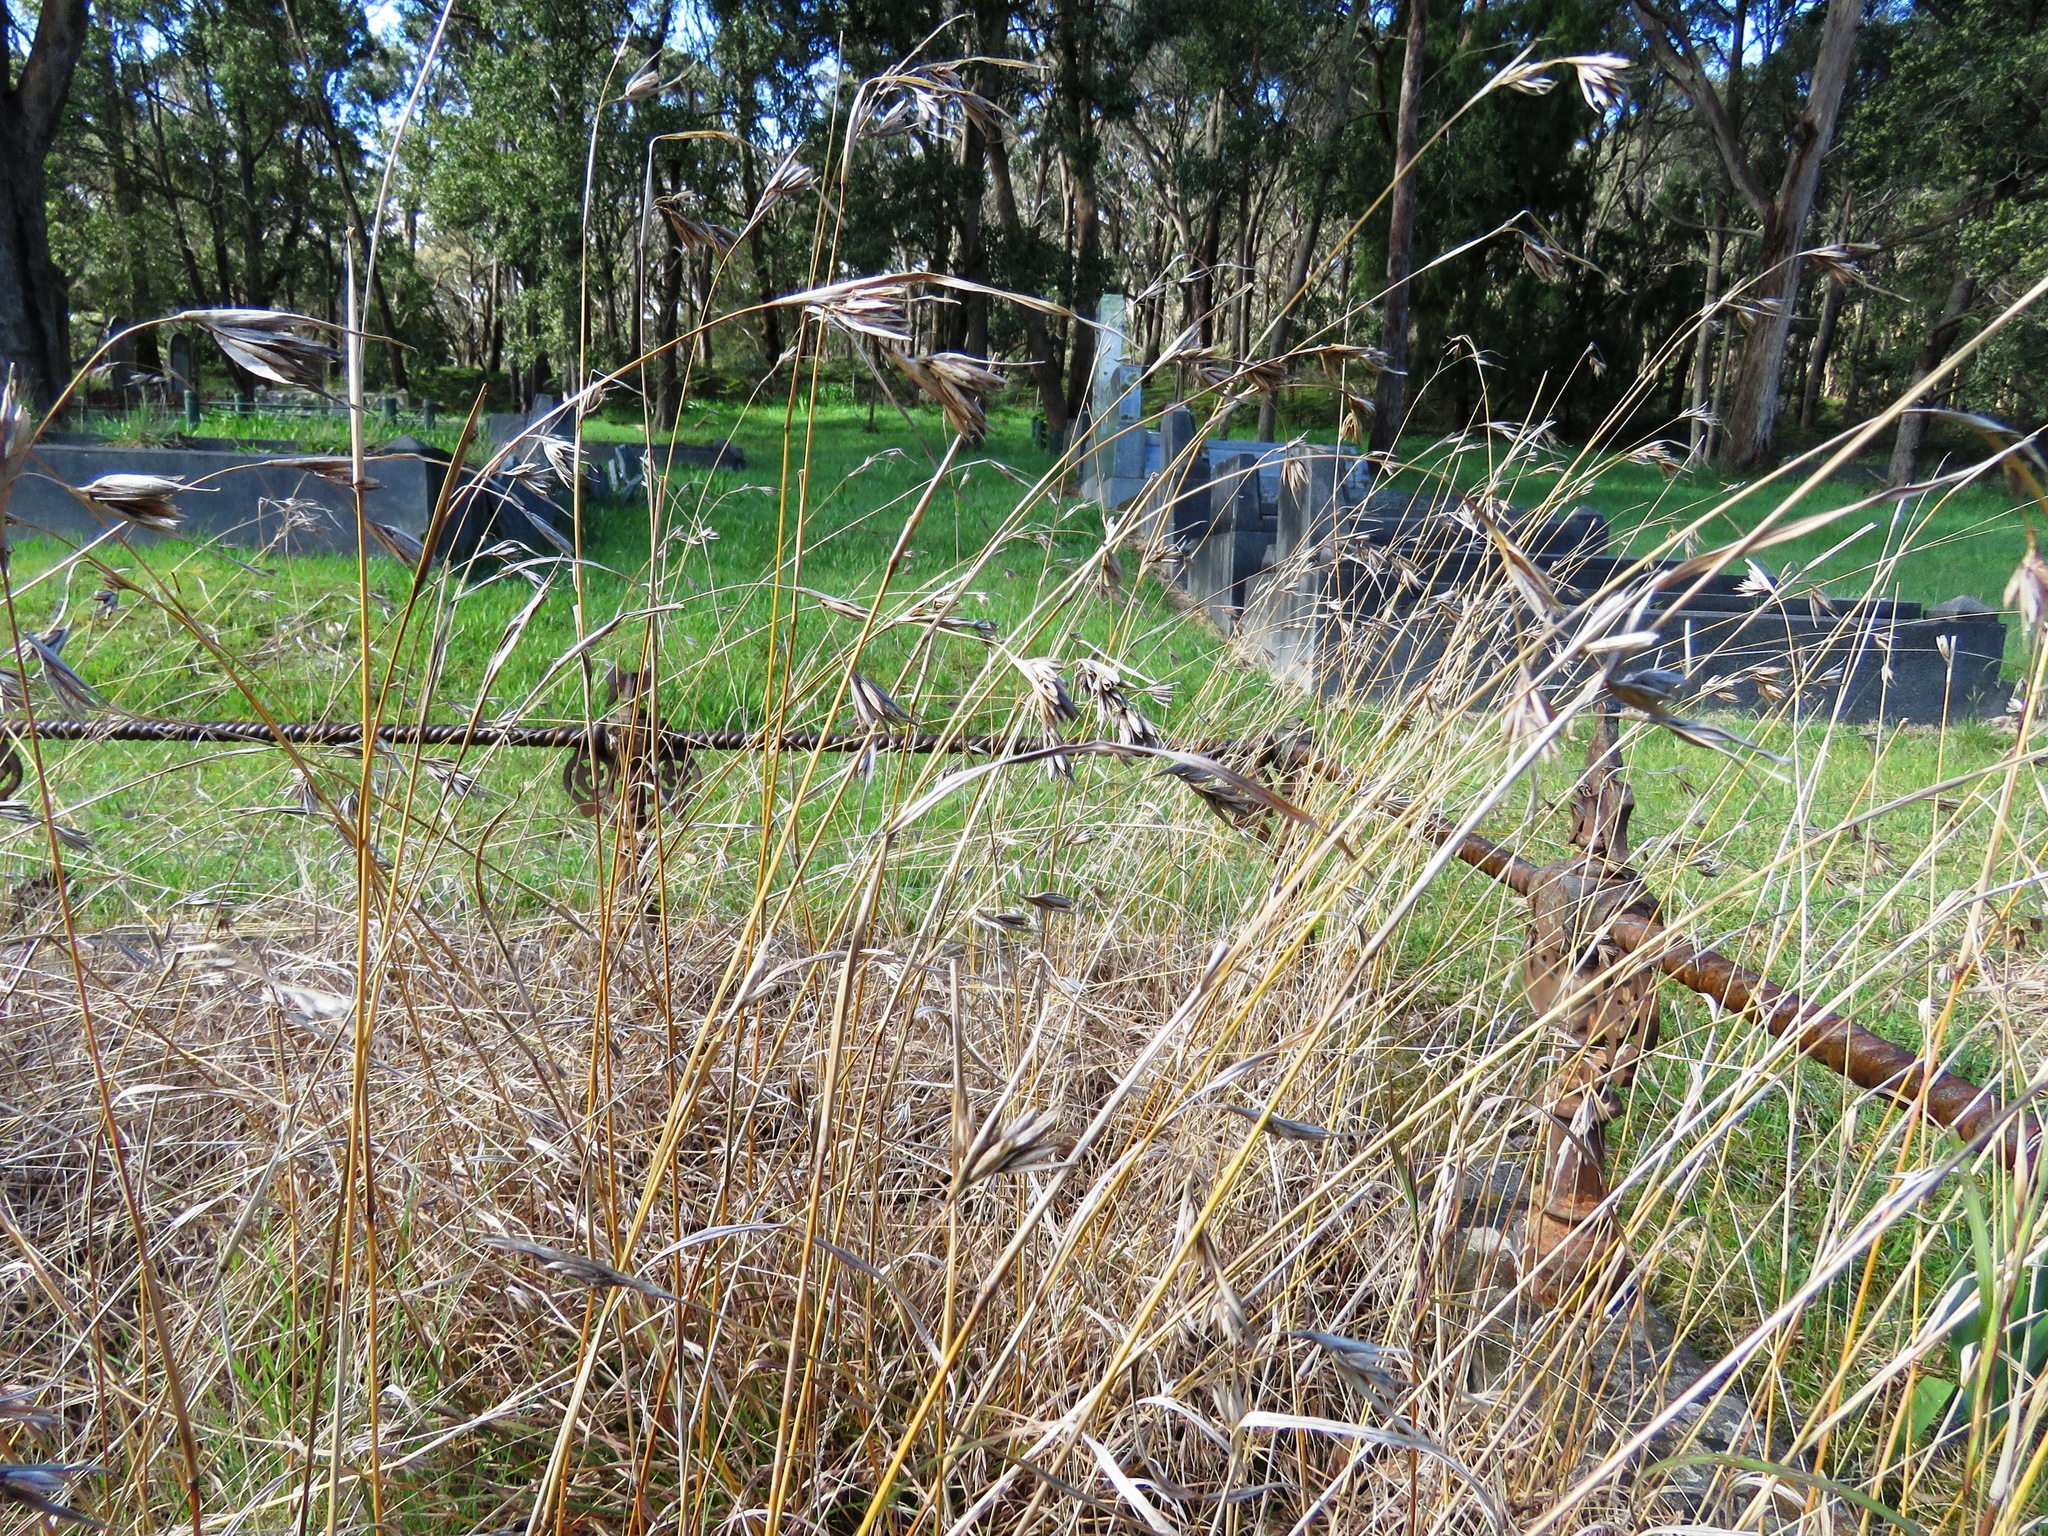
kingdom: Plantae
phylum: Tracheophyta
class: Liliopsida
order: Poales
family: Poaceae
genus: Themeda
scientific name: Themeda triandra
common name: Kangaroo grass
